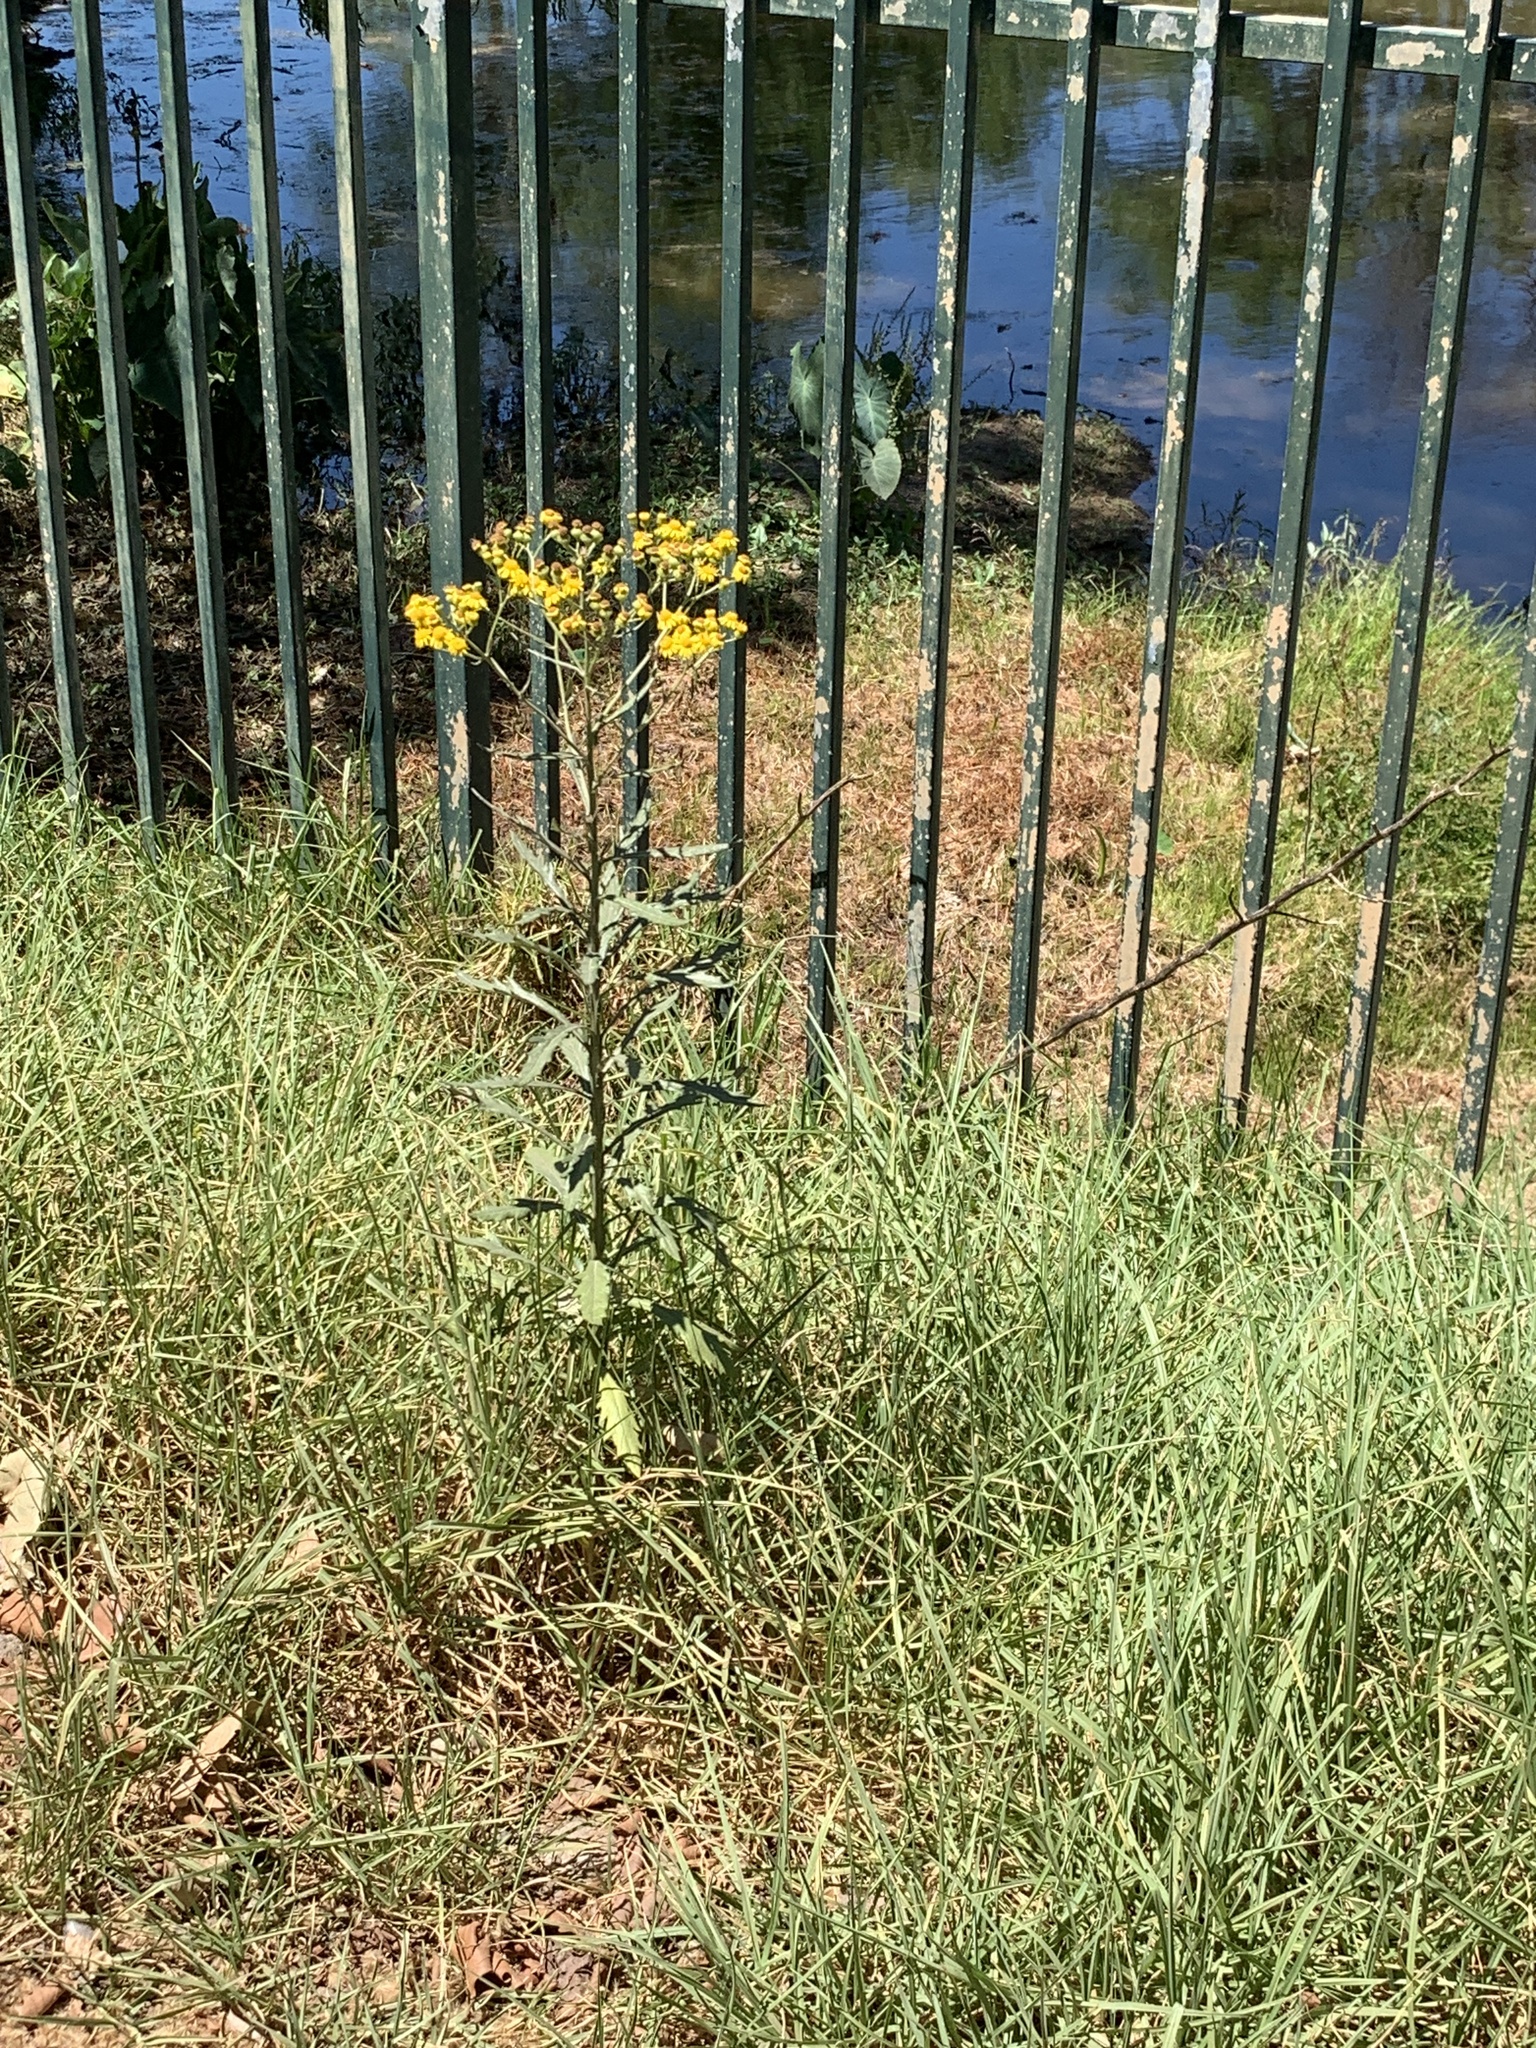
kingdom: Plantae
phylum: Tracheophyta
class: Magnoliopsida
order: Asterales
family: Asteraceae
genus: Senecio
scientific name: Senecio pterophorus
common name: Shoddy ragwort
